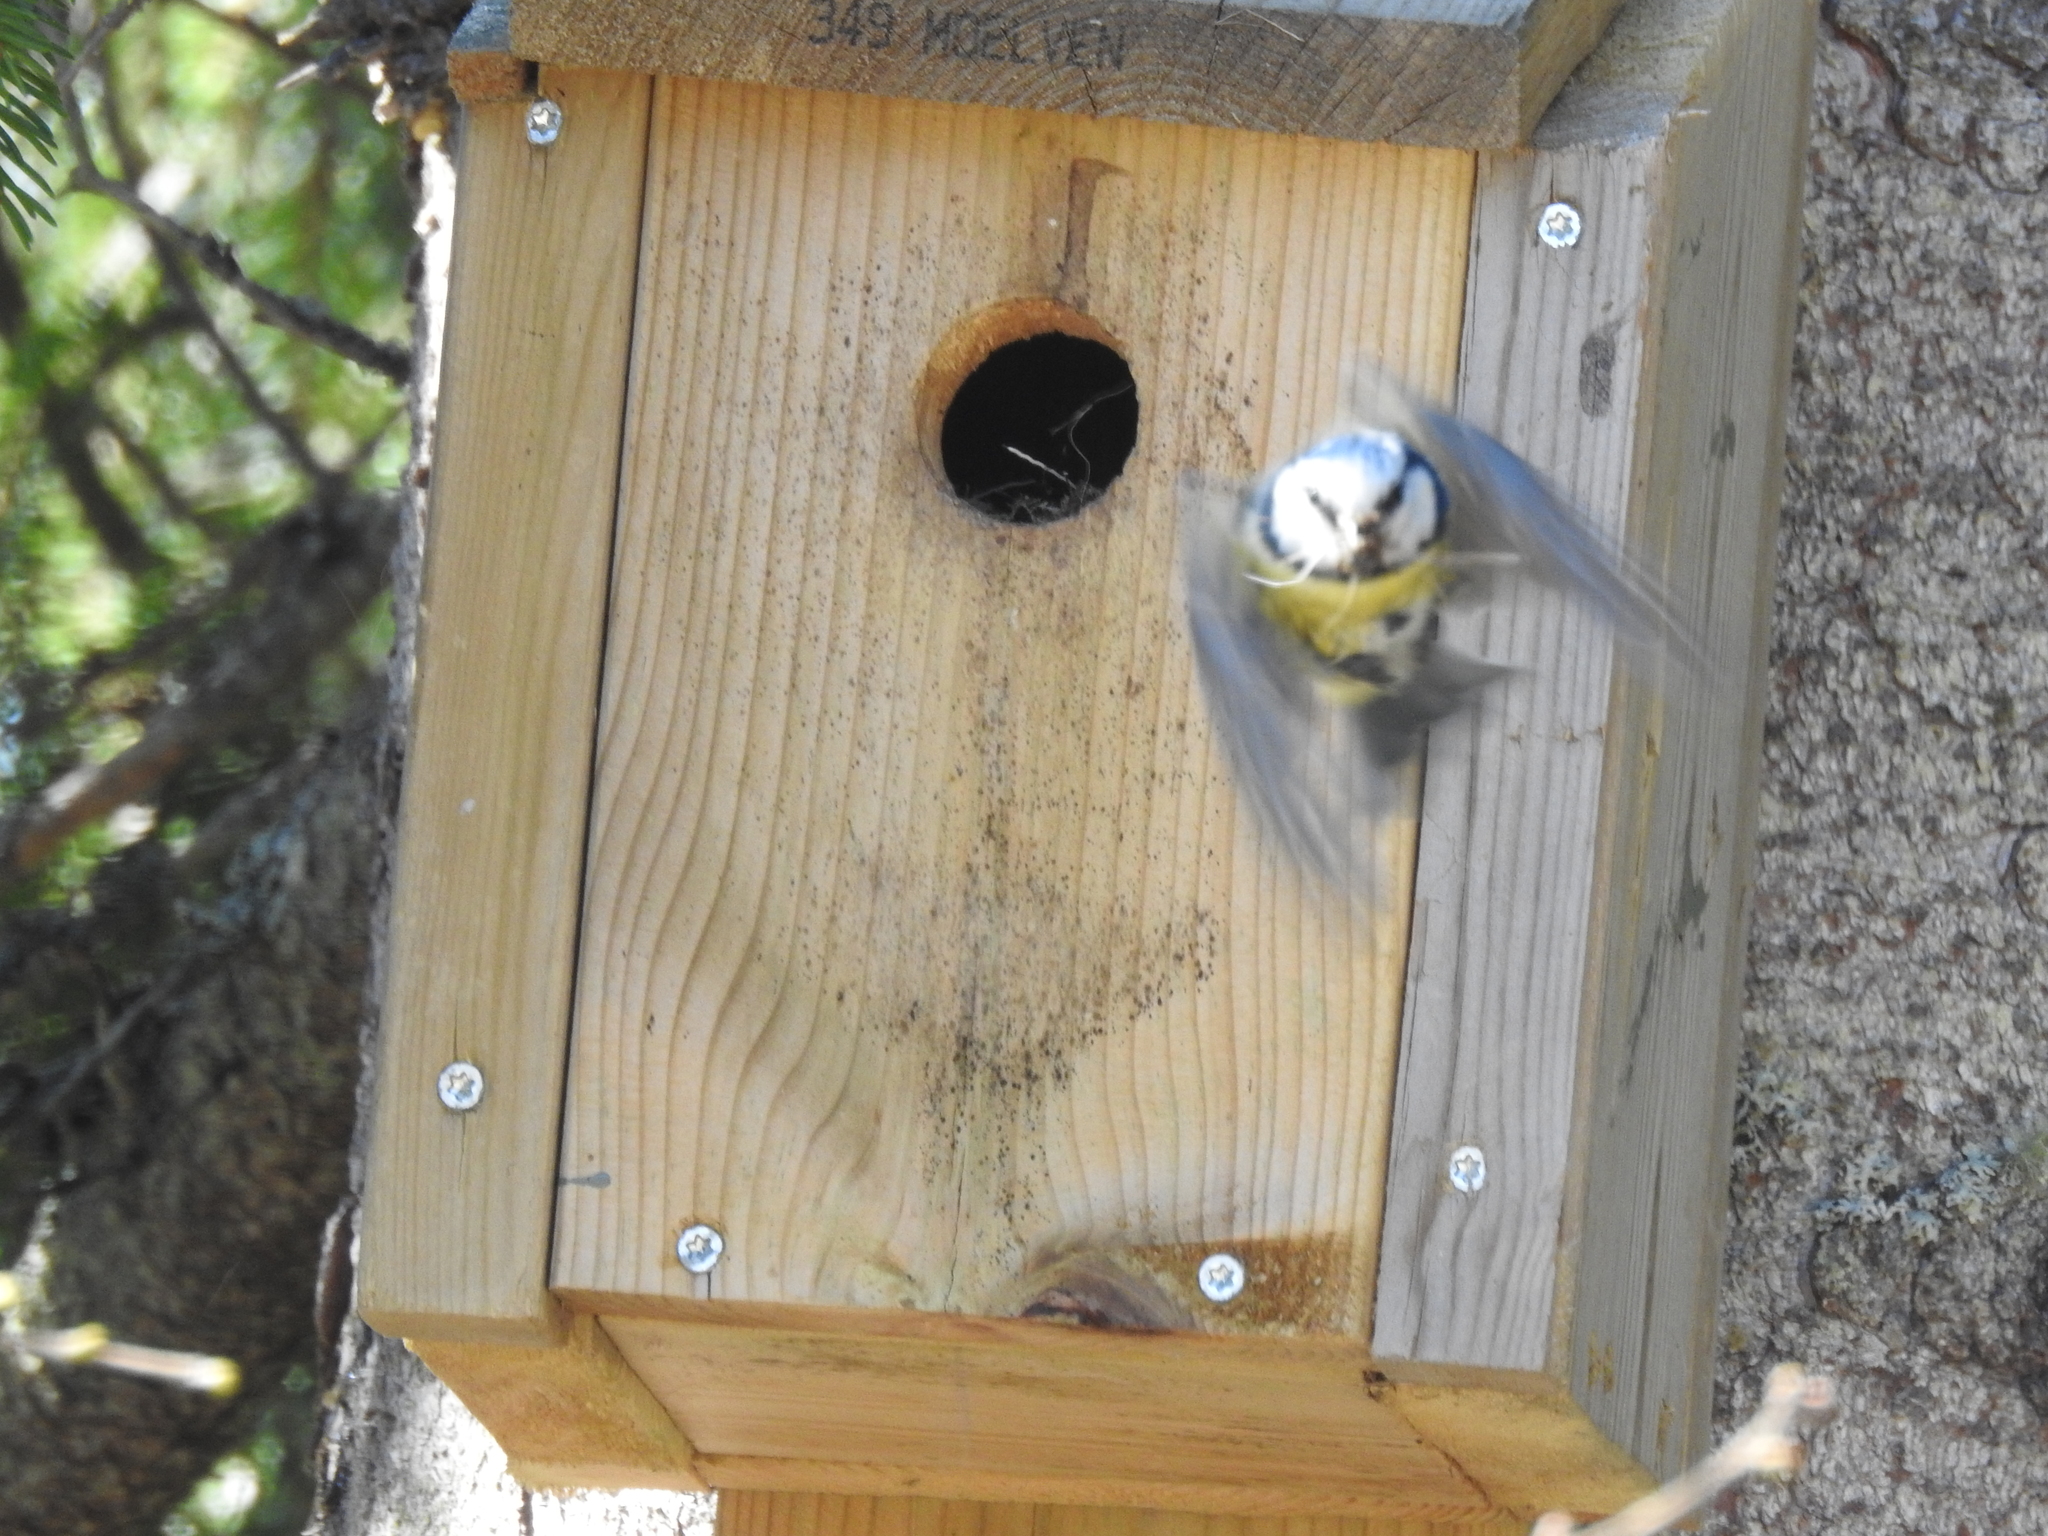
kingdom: Animalia
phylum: Chordata
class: Aves
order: Passeriformes
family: Paridae
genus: Cyanistes
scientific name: Cyanistes caeruleus
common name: Eurasian blue tit
